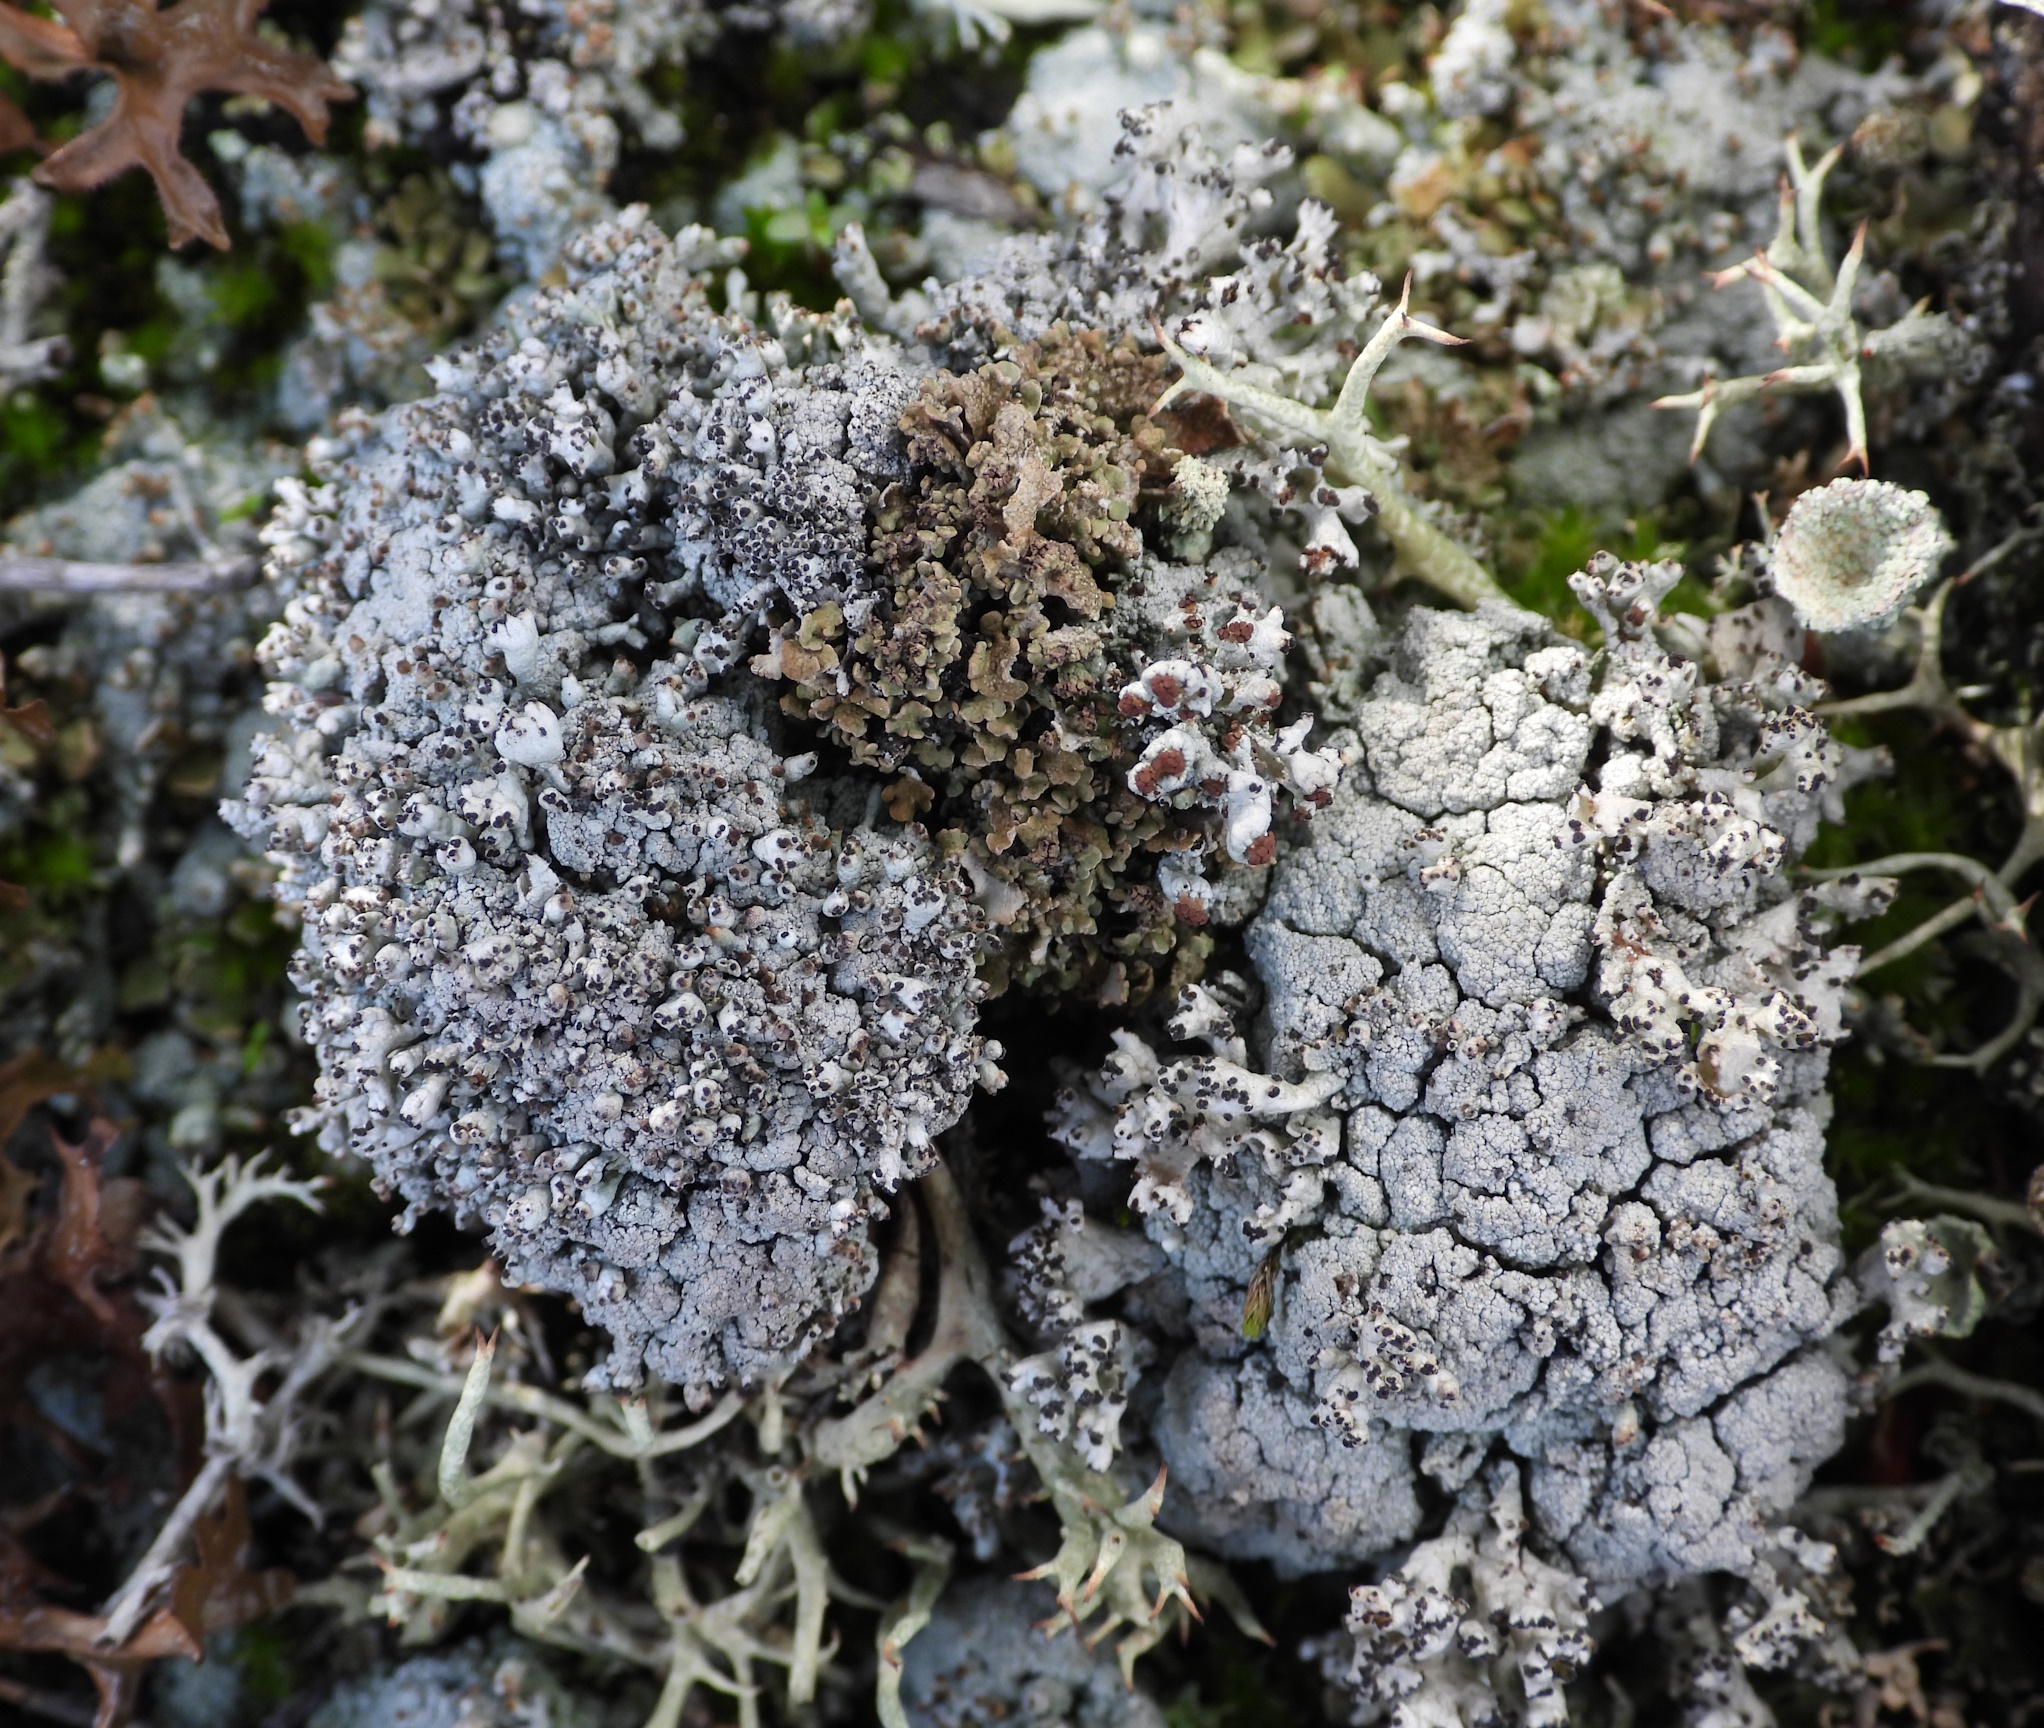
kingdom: Fungi
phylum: Ascomycota
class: Lecanoromycetes
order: Lecanorales
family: Cladoniaceae
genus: Pycnothelia
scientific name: Pycnothelia papillaria
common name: Nipple lichen
